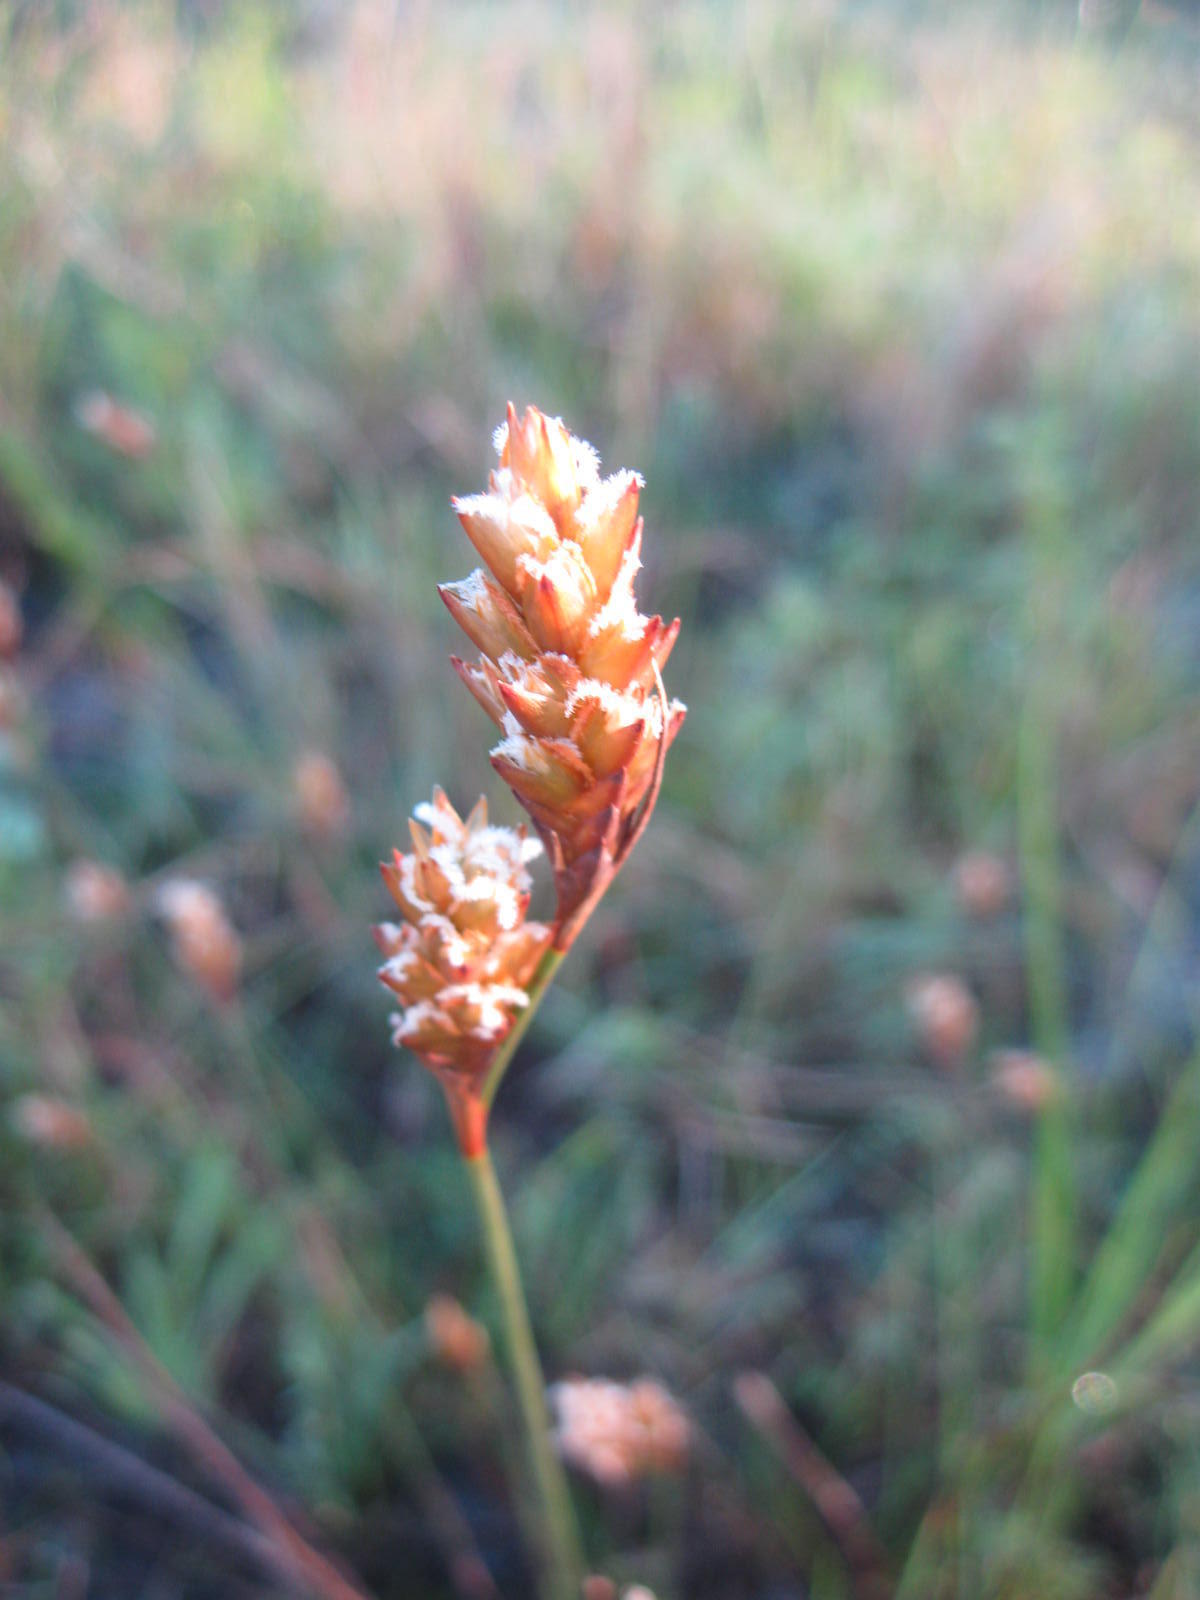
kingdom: Plantae
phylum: Tracheophyta
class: Liliopsida
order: Poales
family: Restionaceae
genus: Restio
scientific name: Restio quinquefarius
